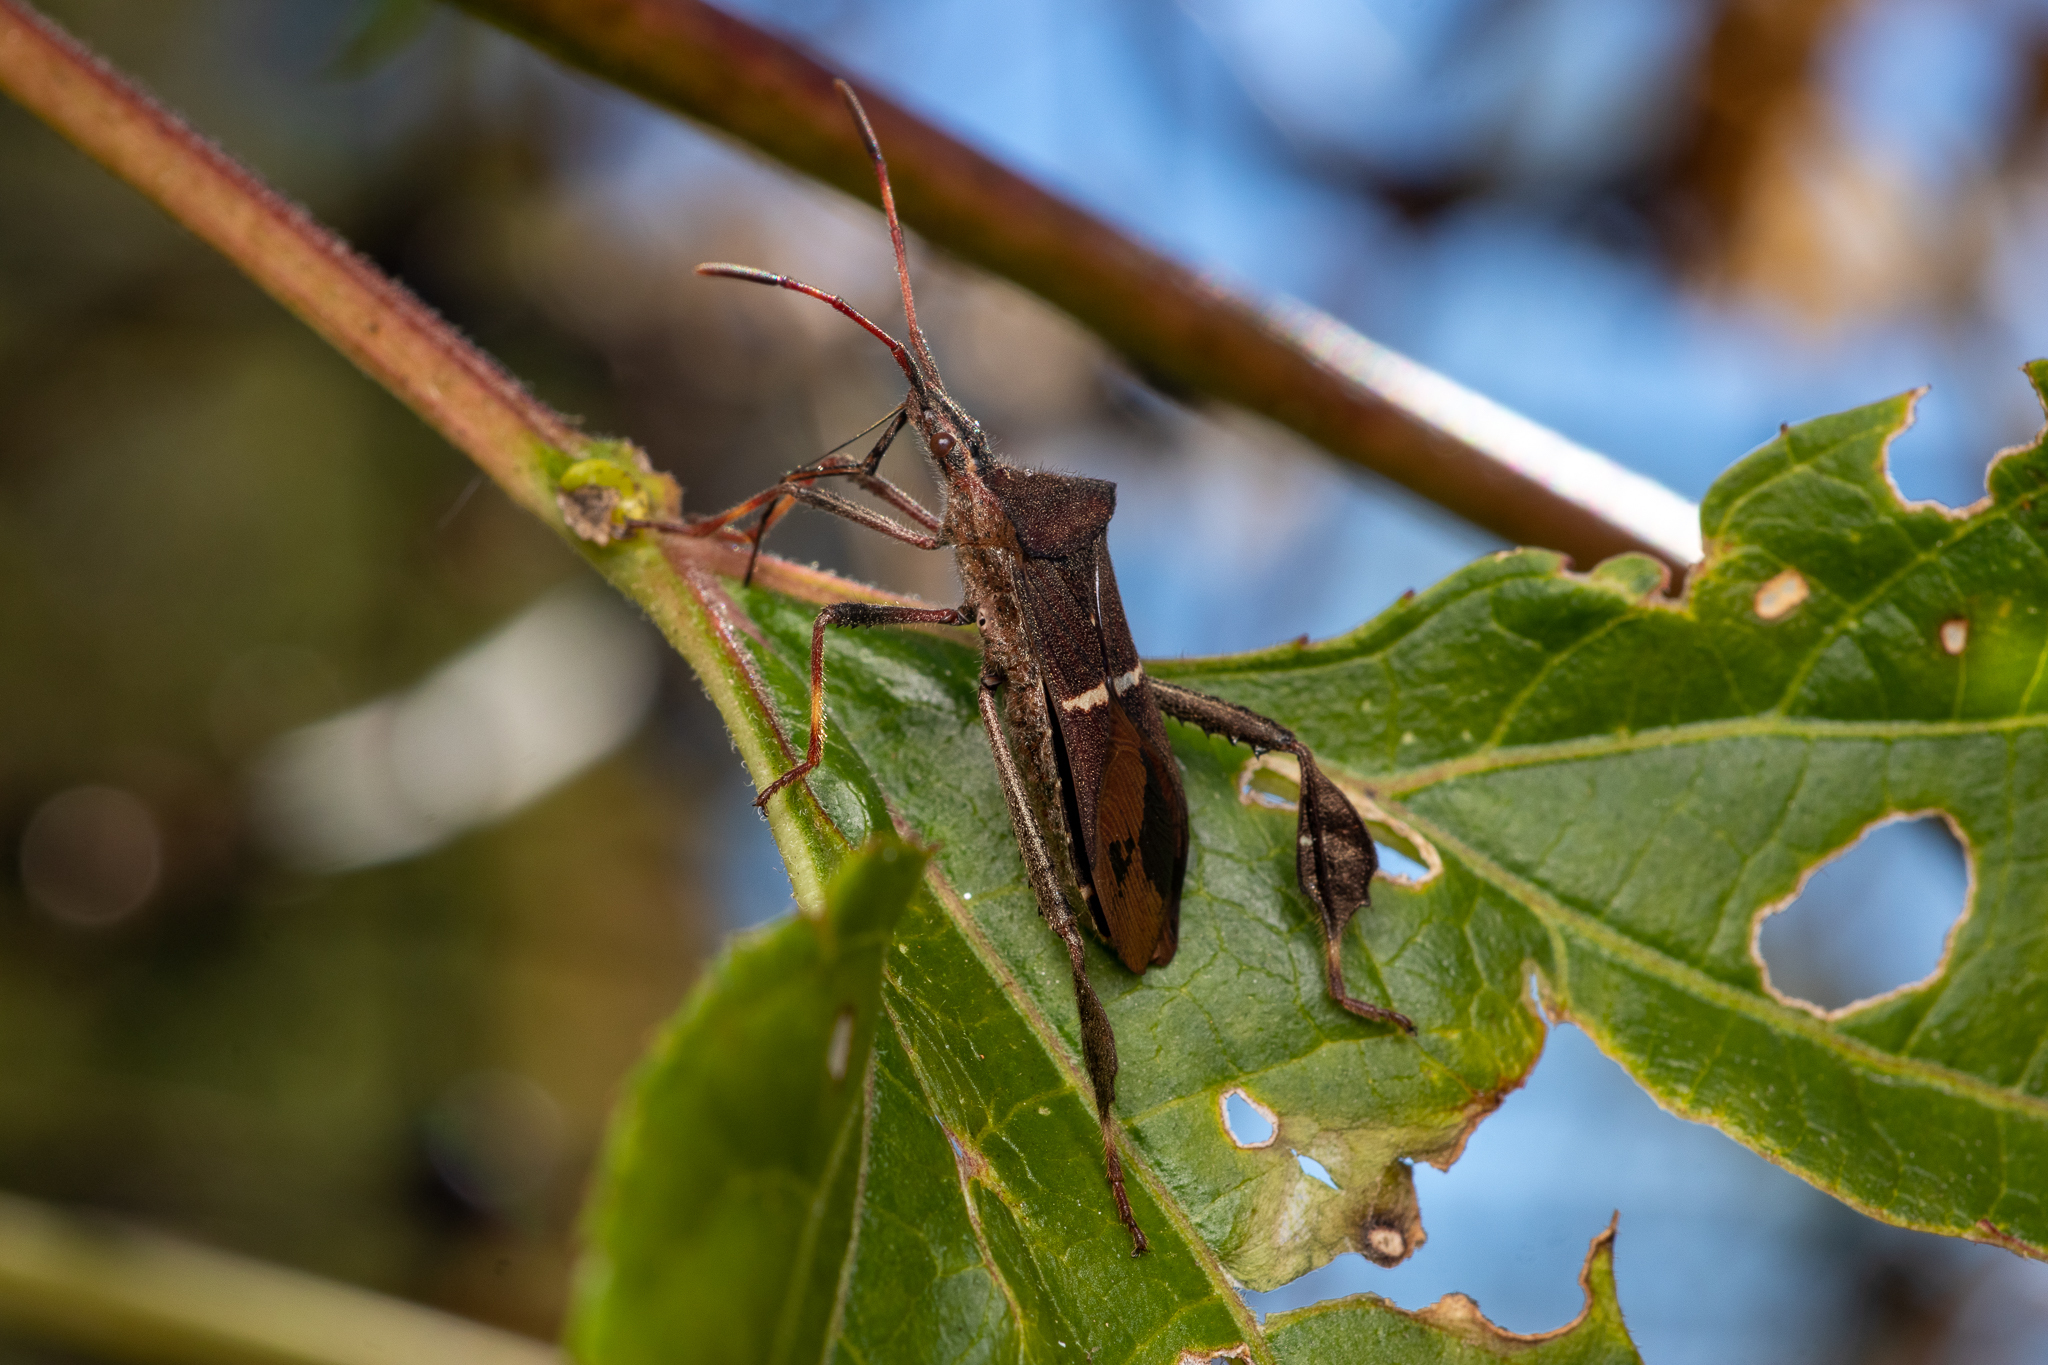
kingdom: Animalia
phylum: Arthropoda
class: Insecta
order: Hemiptera
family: Coreidae
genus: Leptoglossus
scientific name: Leptoglossus phyllopus
